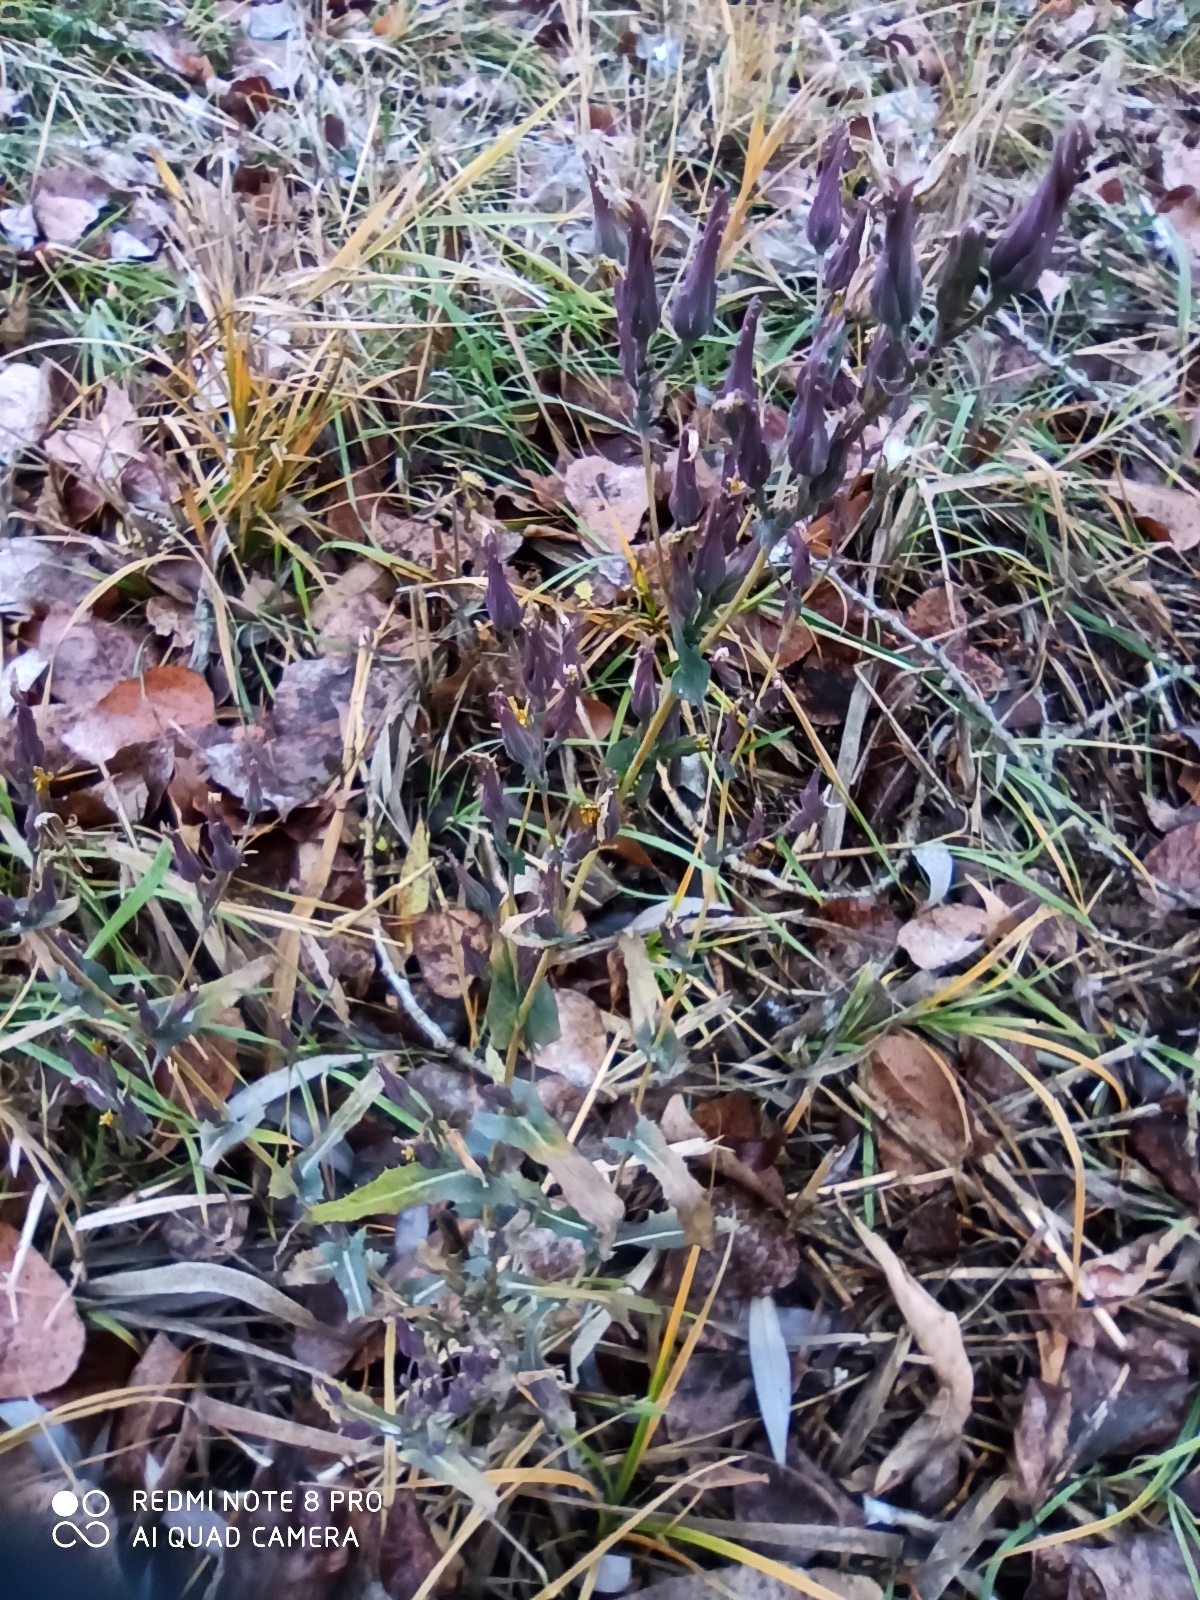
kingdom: Plantae
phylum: Tracheophyta
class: Magnoliopsida
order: Asterales
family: Asteraceae
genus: Lactuca
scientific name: Lactuca tatarica
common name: Blue lettuce
